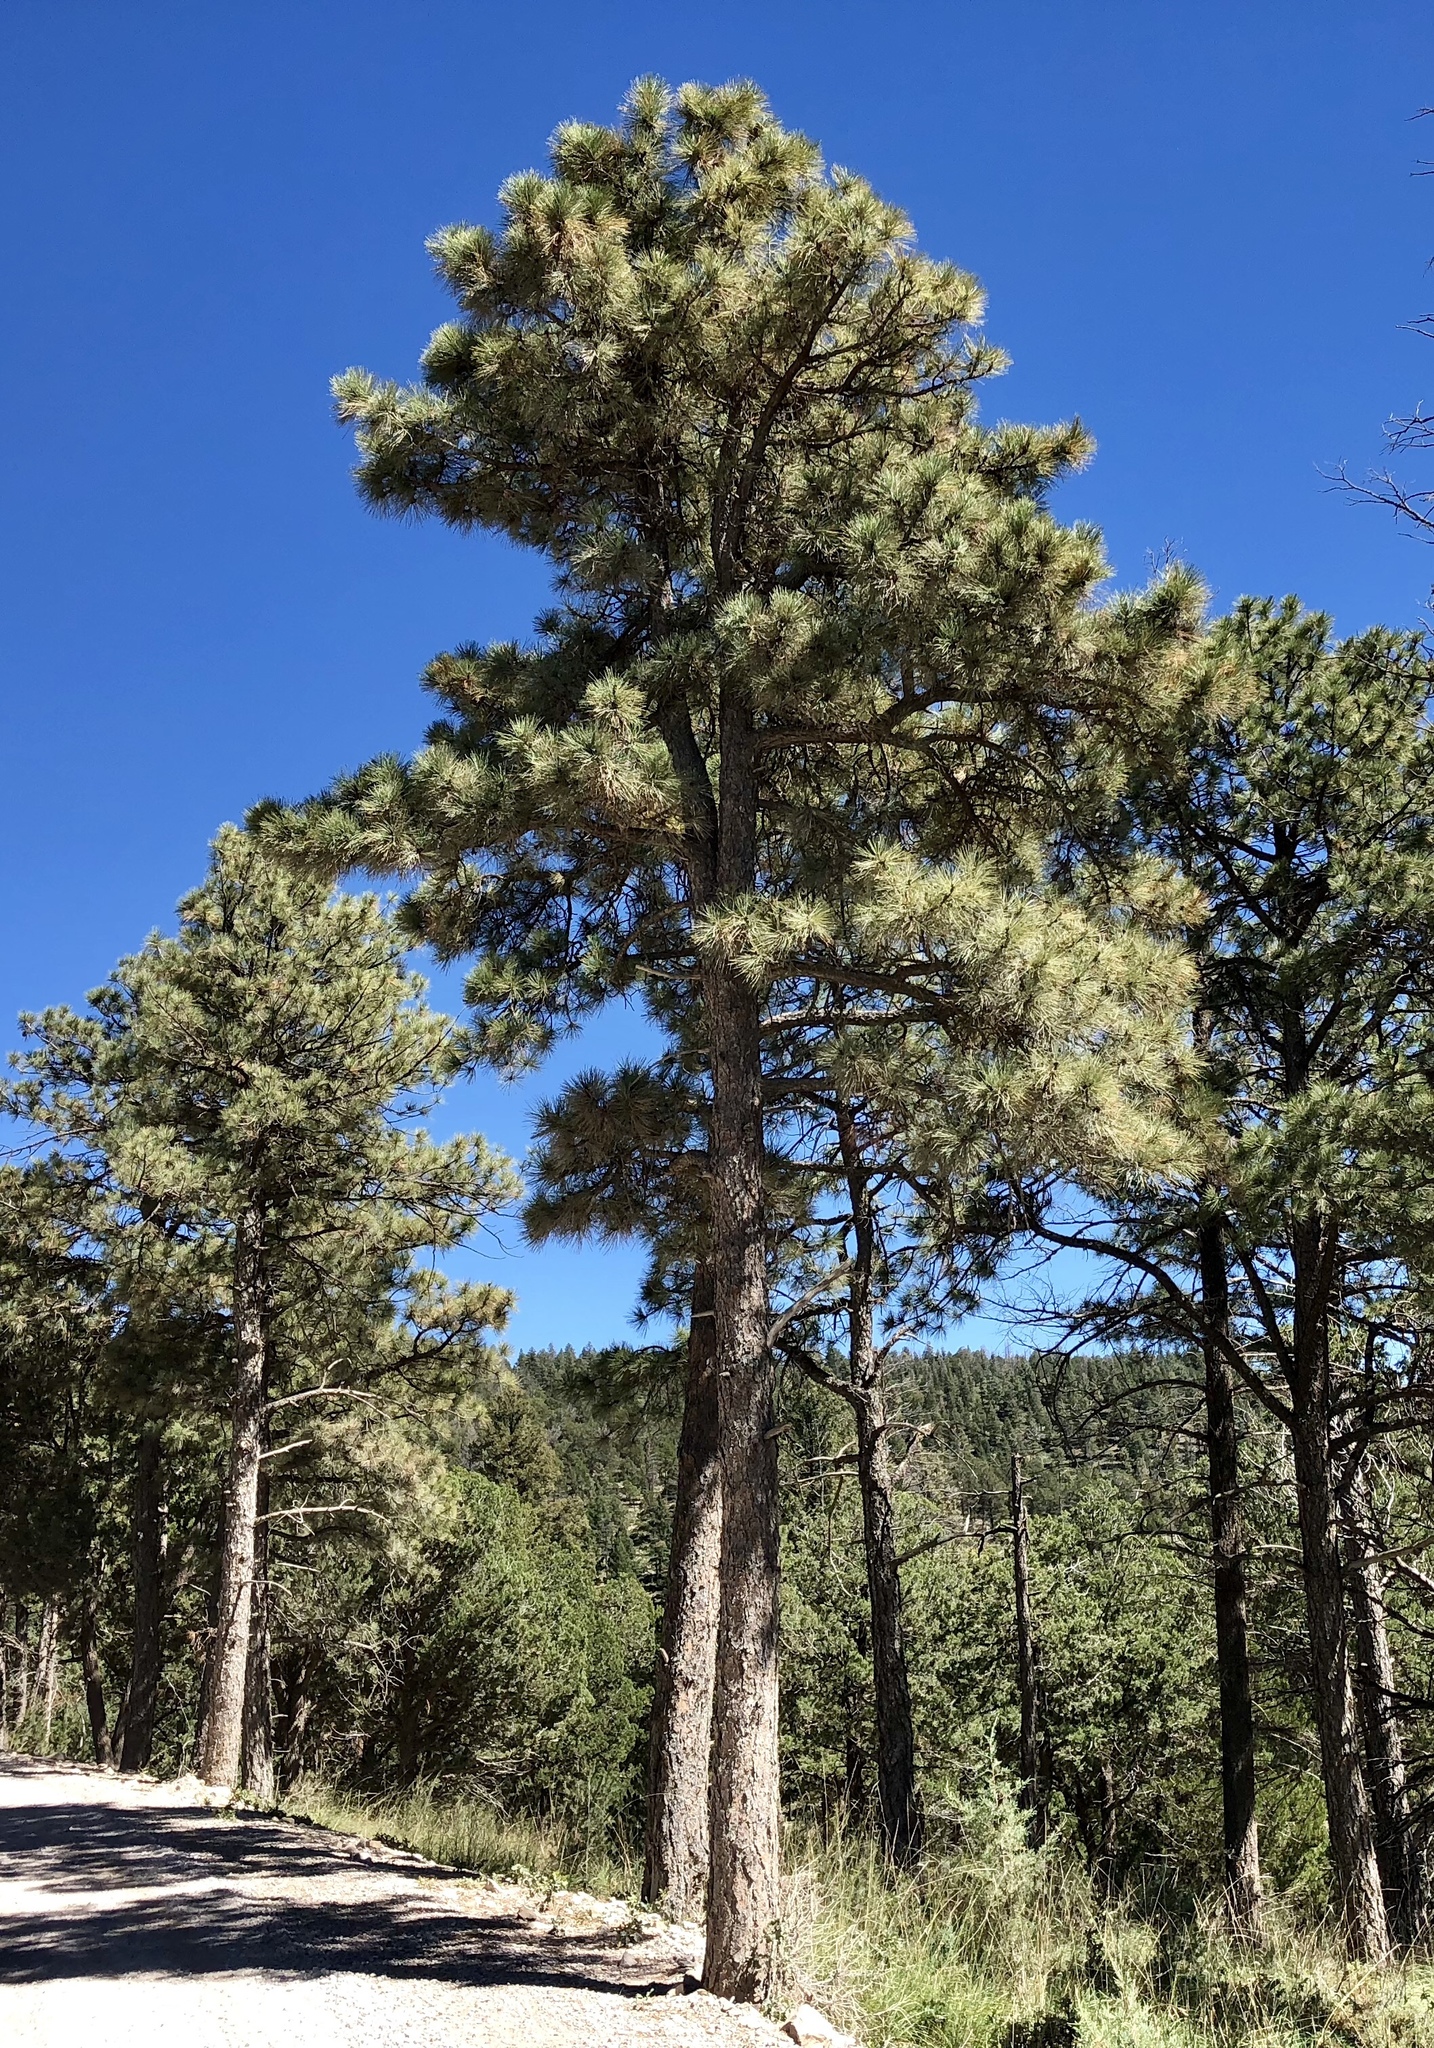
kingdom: Plantae
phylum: Tracheophyta
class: Pinopsida
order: Pinales
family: Pinaceae
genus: Pinus
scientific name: Pinus ponderosa
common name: Western yellow-pine
